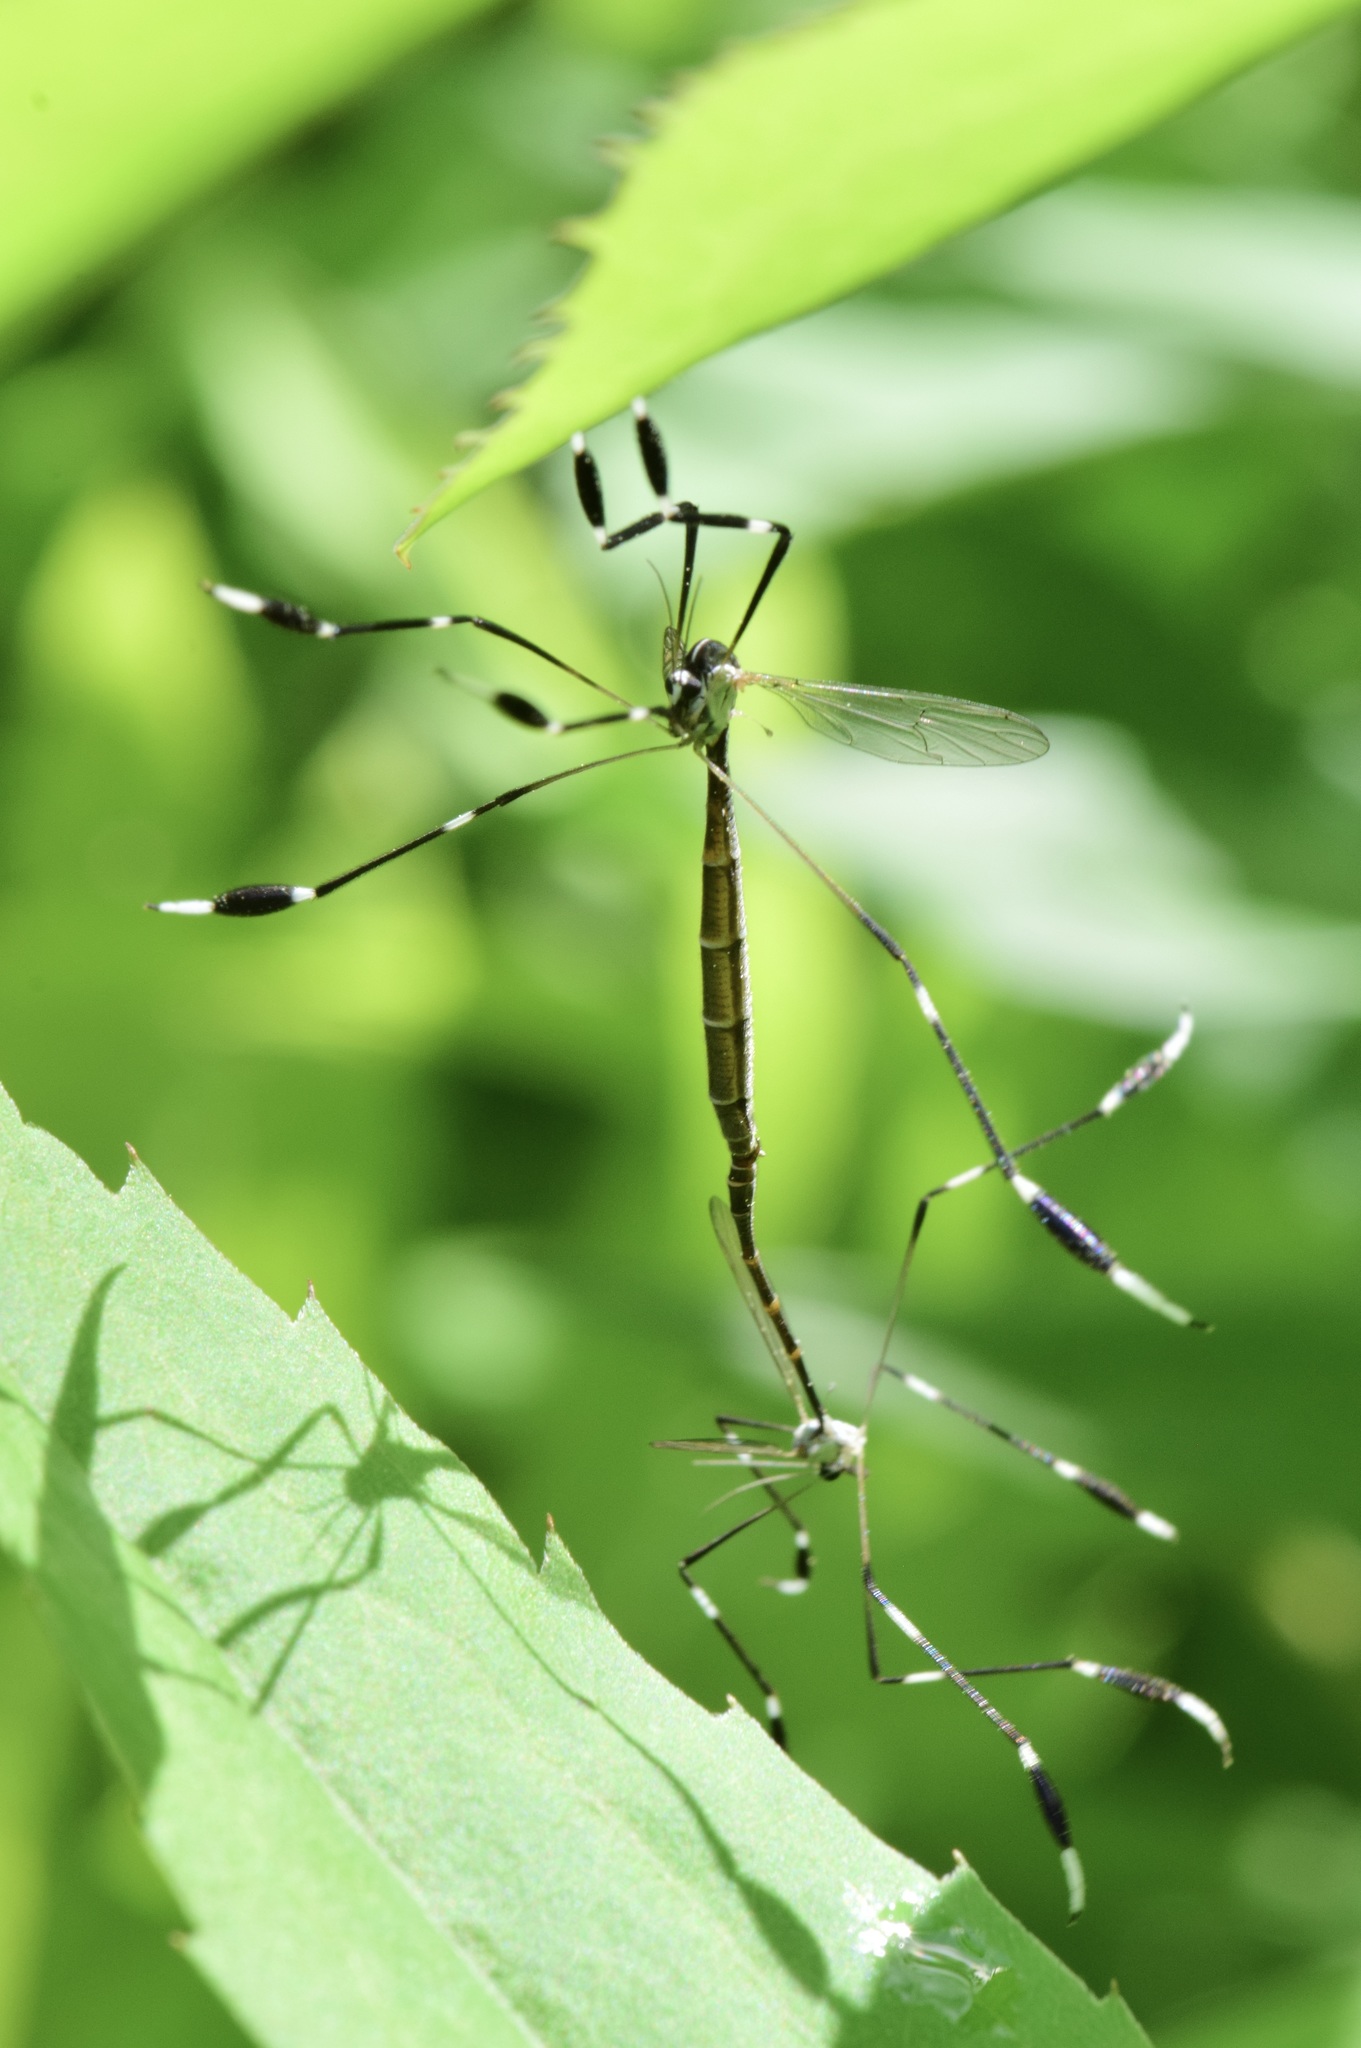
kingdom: Animalia
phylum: Arthropoda
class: Insecta
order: Diptera
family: Ptychopteridae
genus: Bittacomorpha
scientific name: Bittacomorpha clavipes
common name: Eastern phantom crane fly
